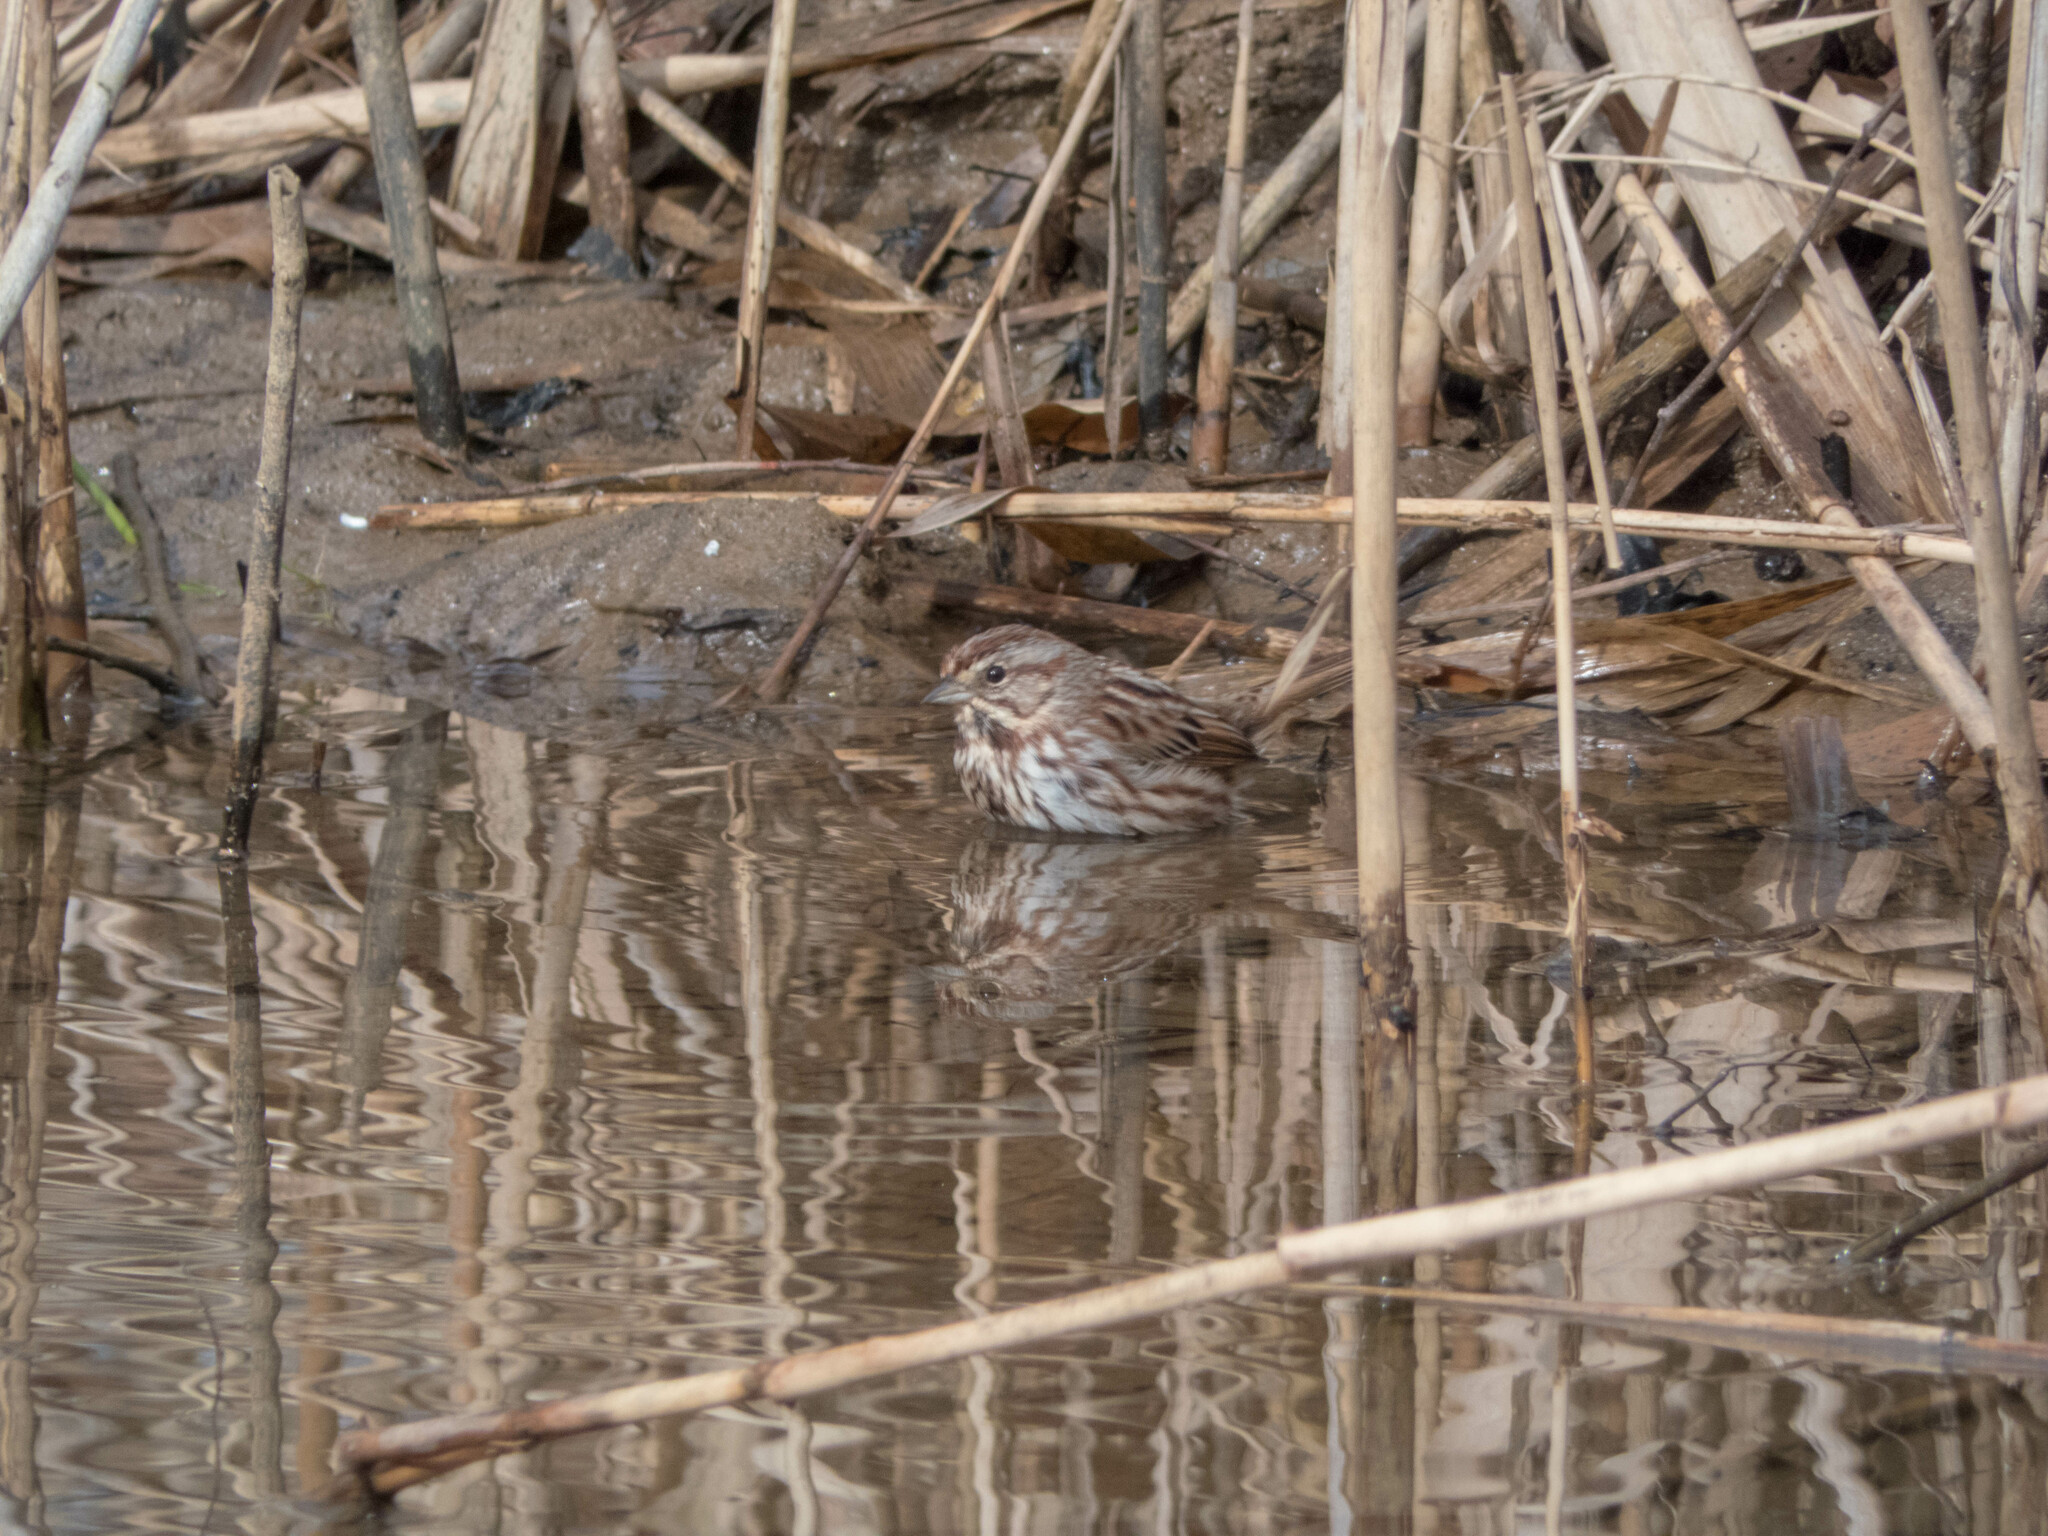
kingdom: Animalia
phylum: Chordata
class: Aves
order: Passeriformes
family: Passerellidae
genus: Melospiza
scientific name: Melospiza melodia
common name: Song sparrow
